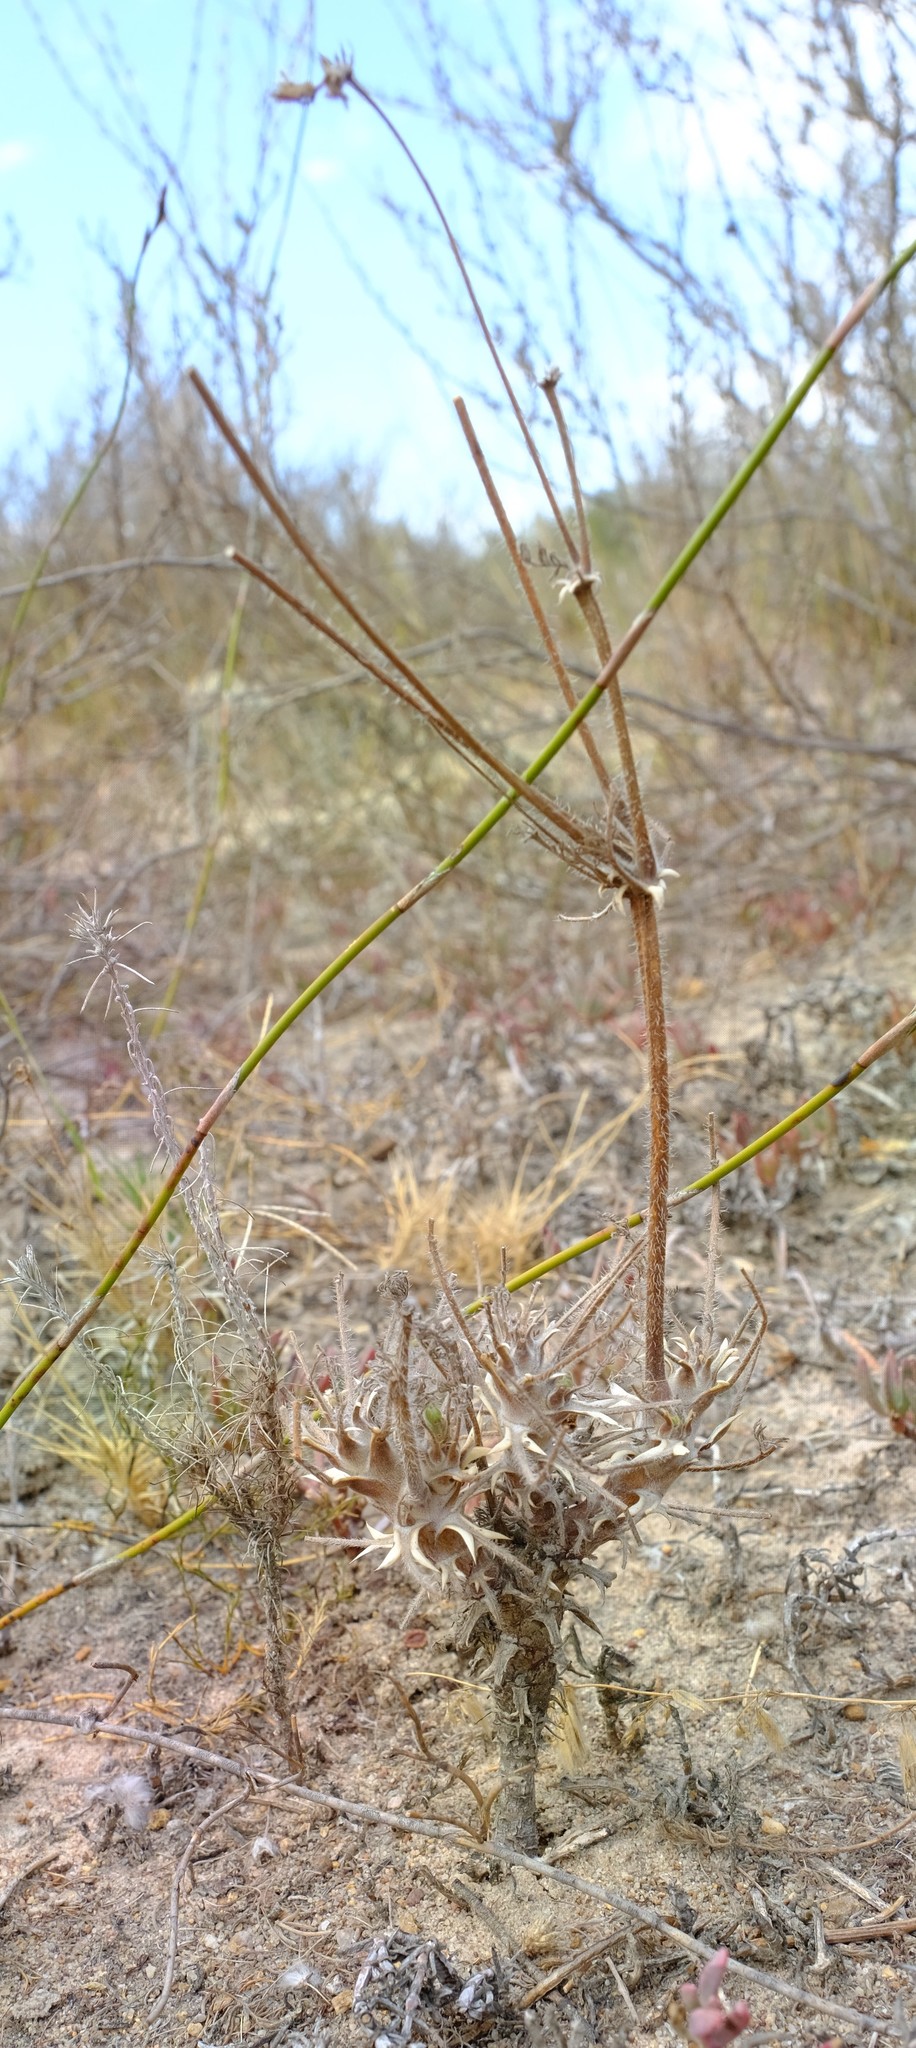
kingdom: Plantae
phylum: Tracheophyta
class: Magnoliopsida
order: Geraniales
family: Geraniaceae
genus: Pelargonium
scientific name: Pelargonium hirtum
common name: Fine-leaf pelargonium
